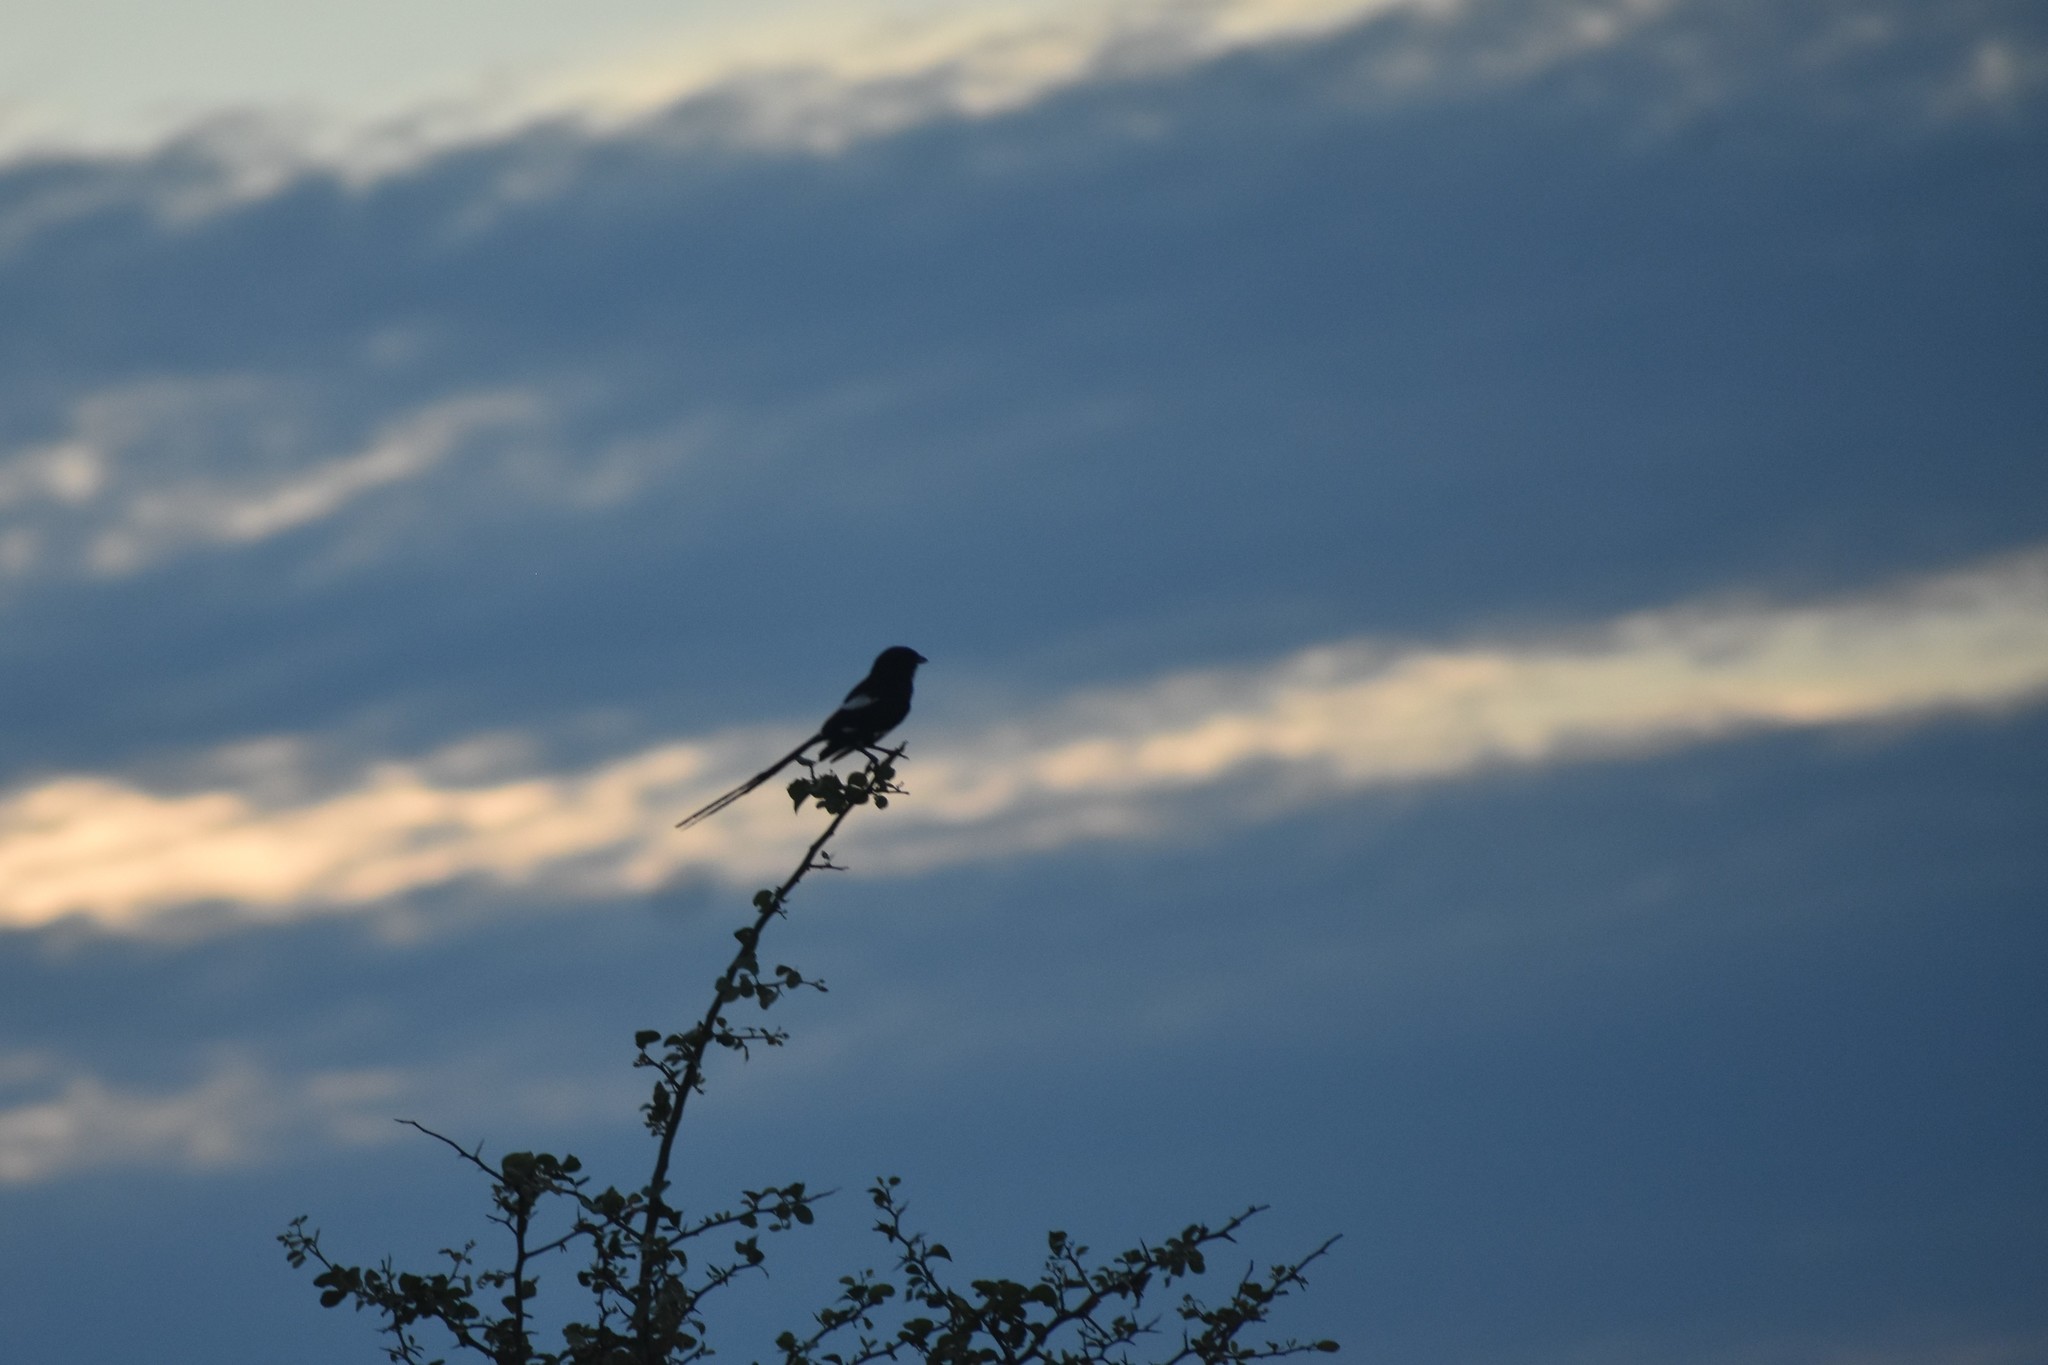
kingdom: Animalia
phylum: Chordata
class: Aves
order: Passeriformes
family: Laniidae
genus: Urolestes
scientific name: Urolestes melanoleucus
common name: Magpie shrike
